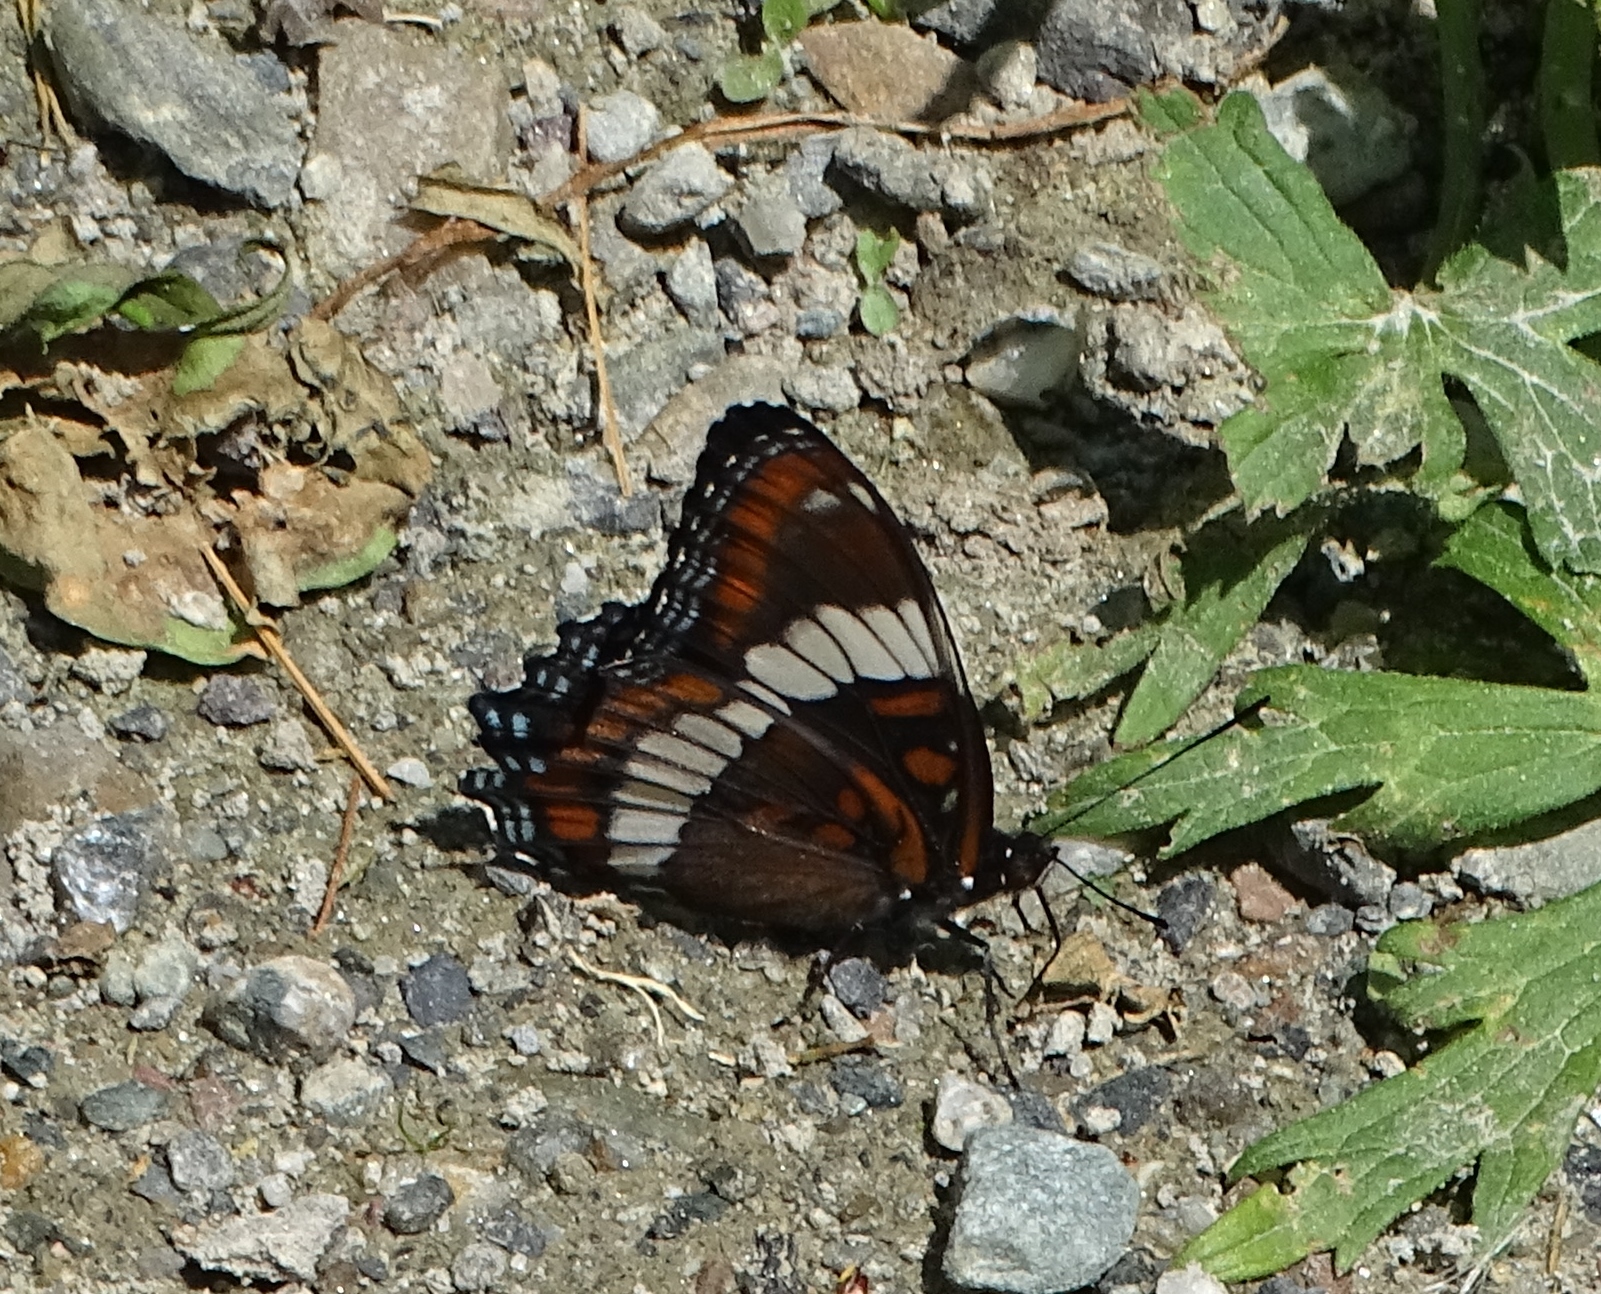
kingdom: Animalia
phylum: Arthropoda
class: Insecta
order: Lepidoptera
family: Nymphalidae
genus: Limenitis
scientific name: Limenitis arthemis
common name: Red-spotted admiral
